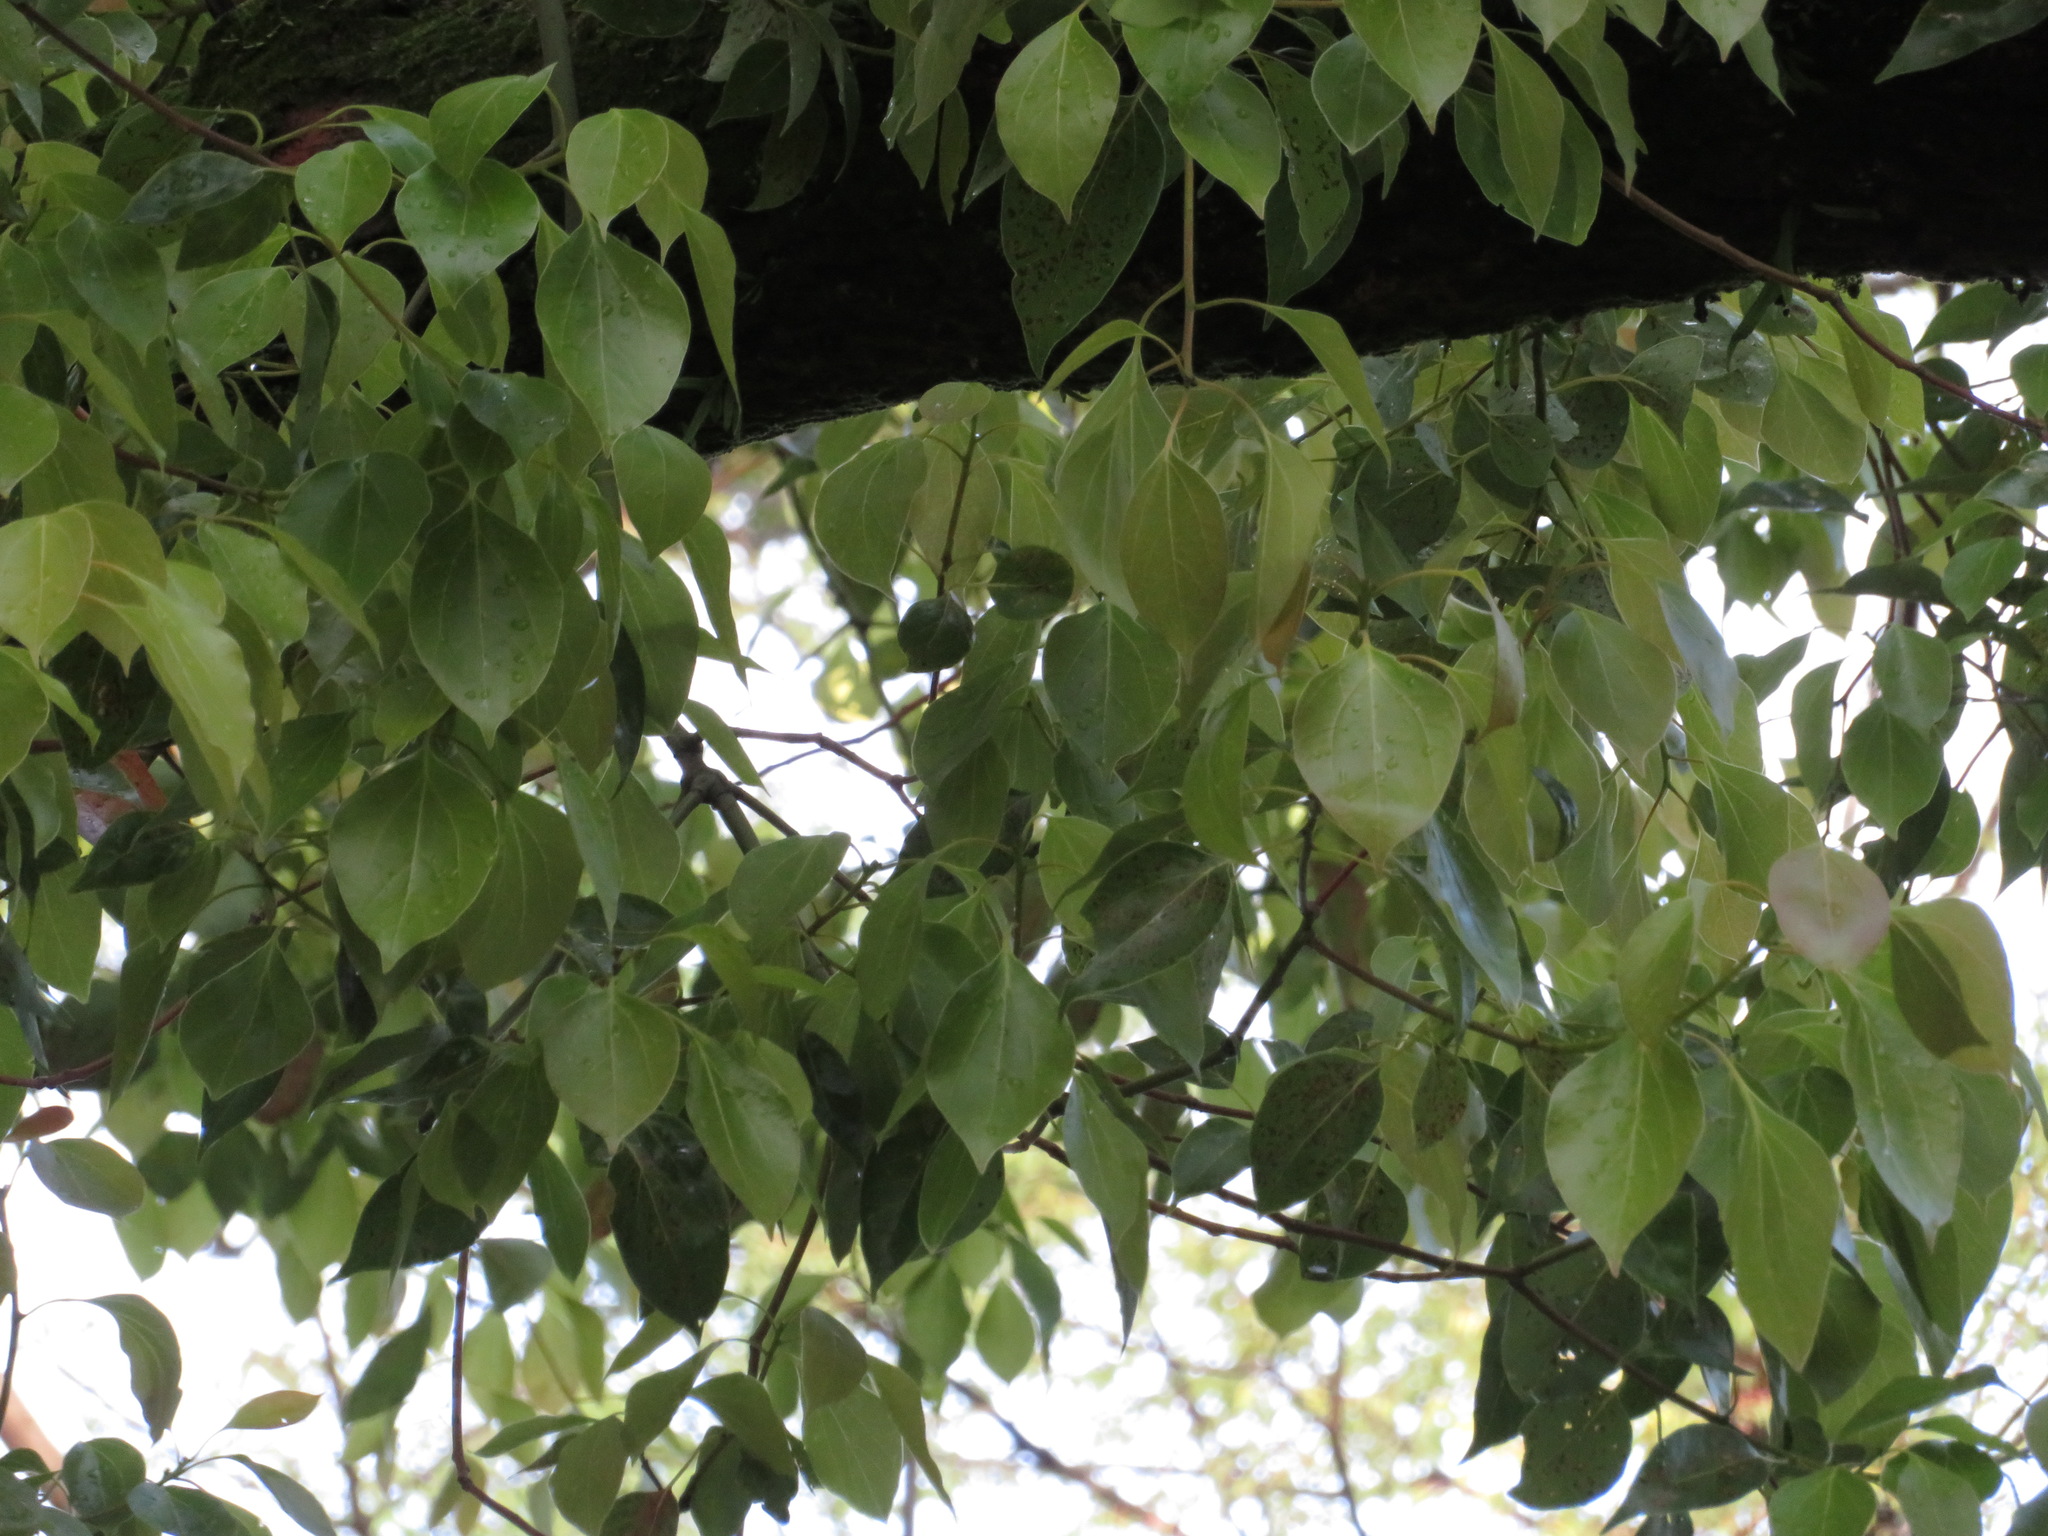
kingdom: Plantae
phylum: Tracheophyta
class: Magnoliopsida
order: Laurales
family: Lauraceae
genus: Cinnamomum
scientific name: Cinnamomum camphora
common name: Camphortree
